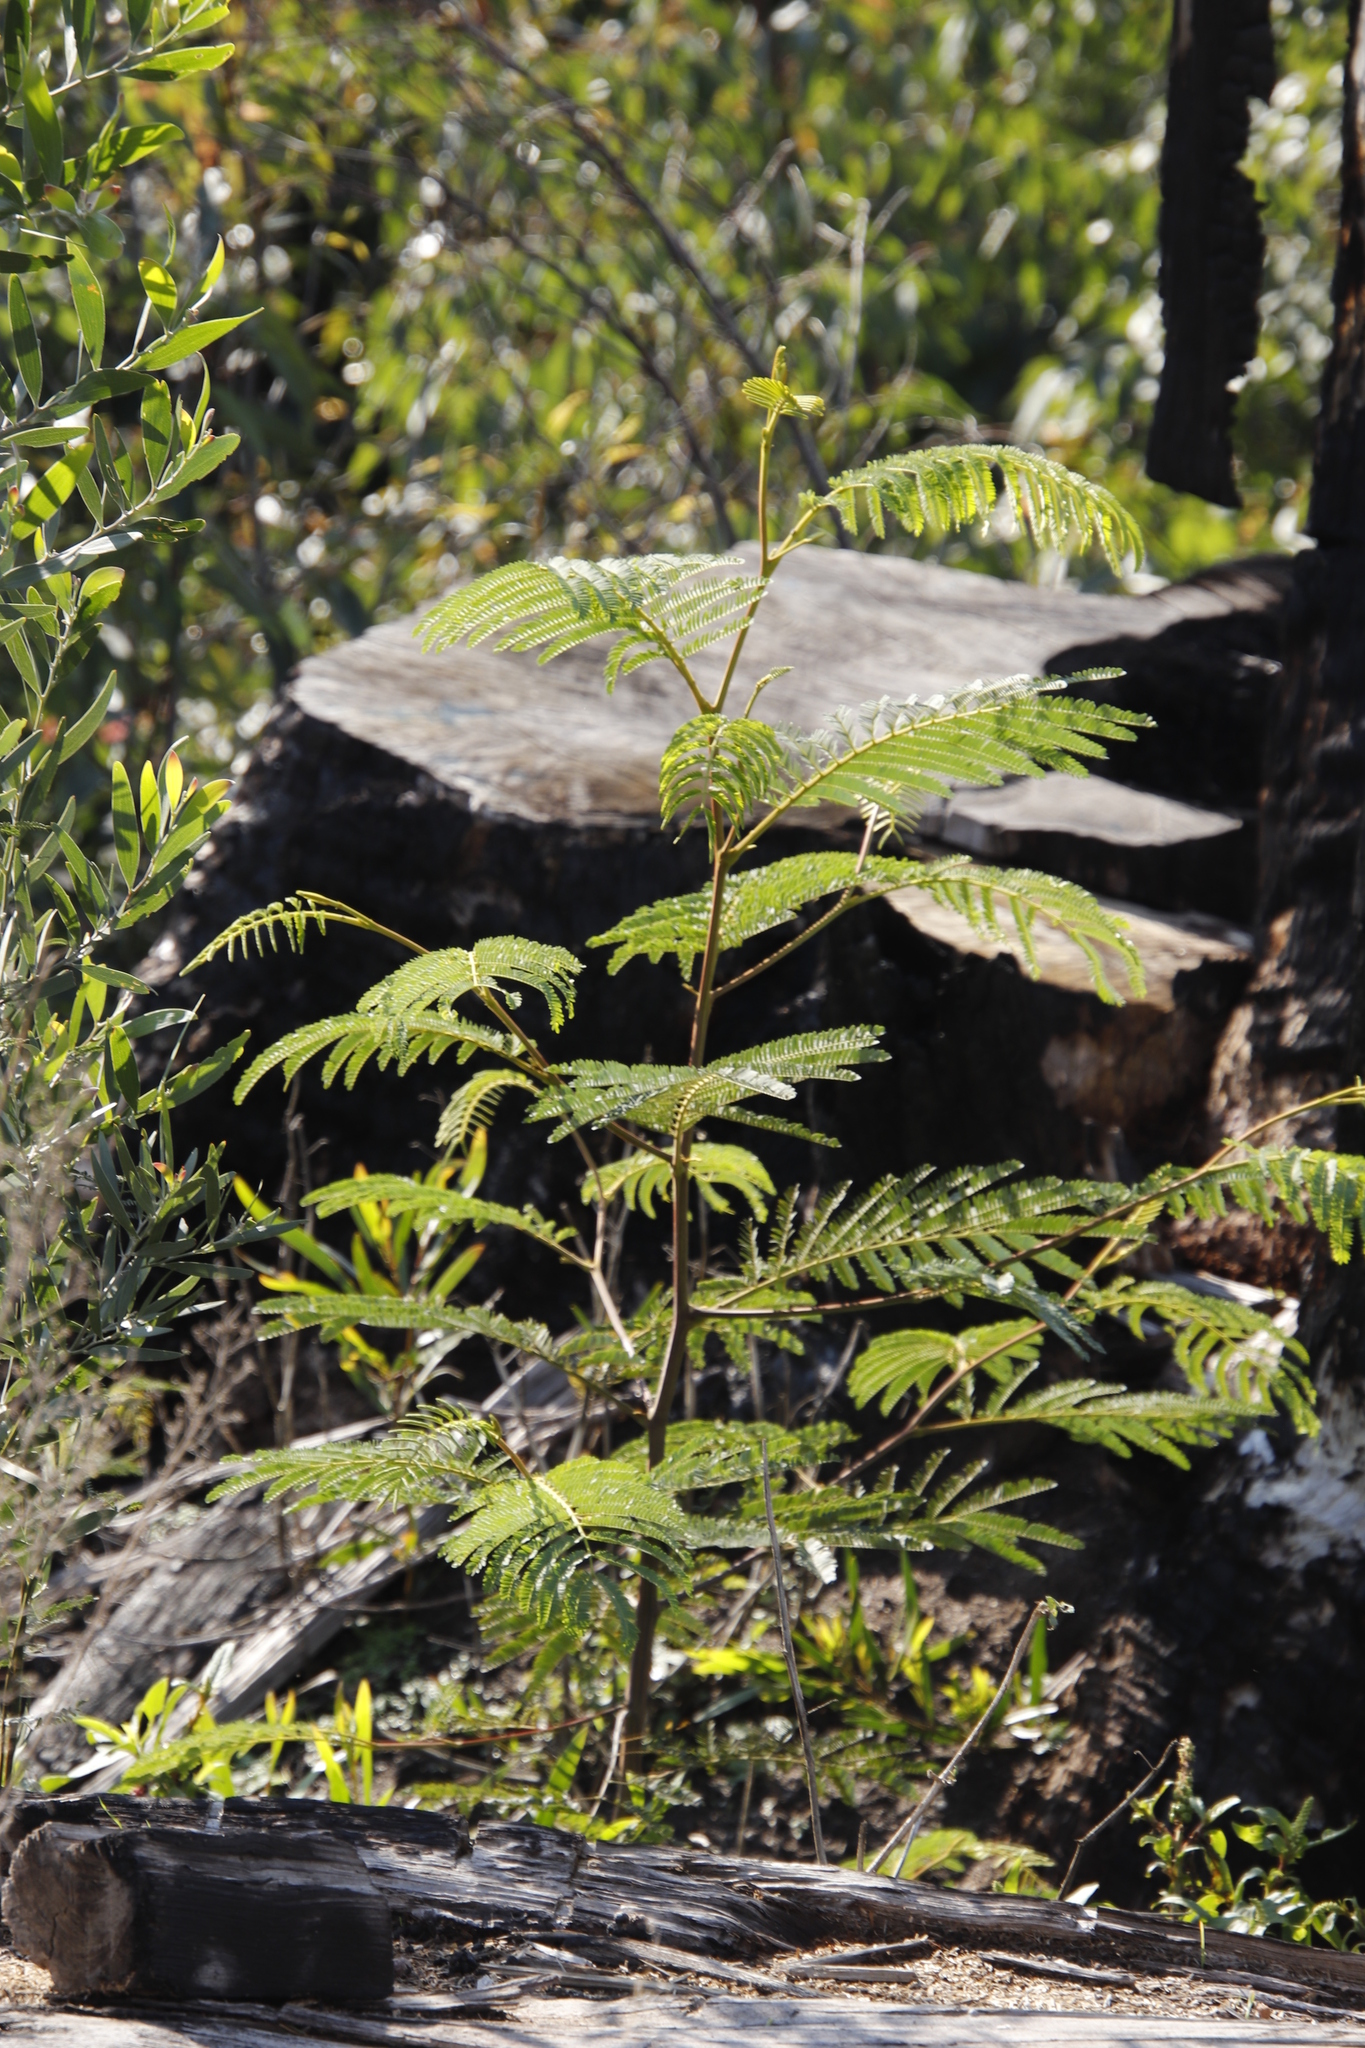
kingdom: Plantae
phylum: Tracheophyta
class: Magnoliopsida
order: Fabales
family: Fabaceae
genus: Paraserianthes
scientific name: Paraserianthes lophantha
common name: Plume albizia
